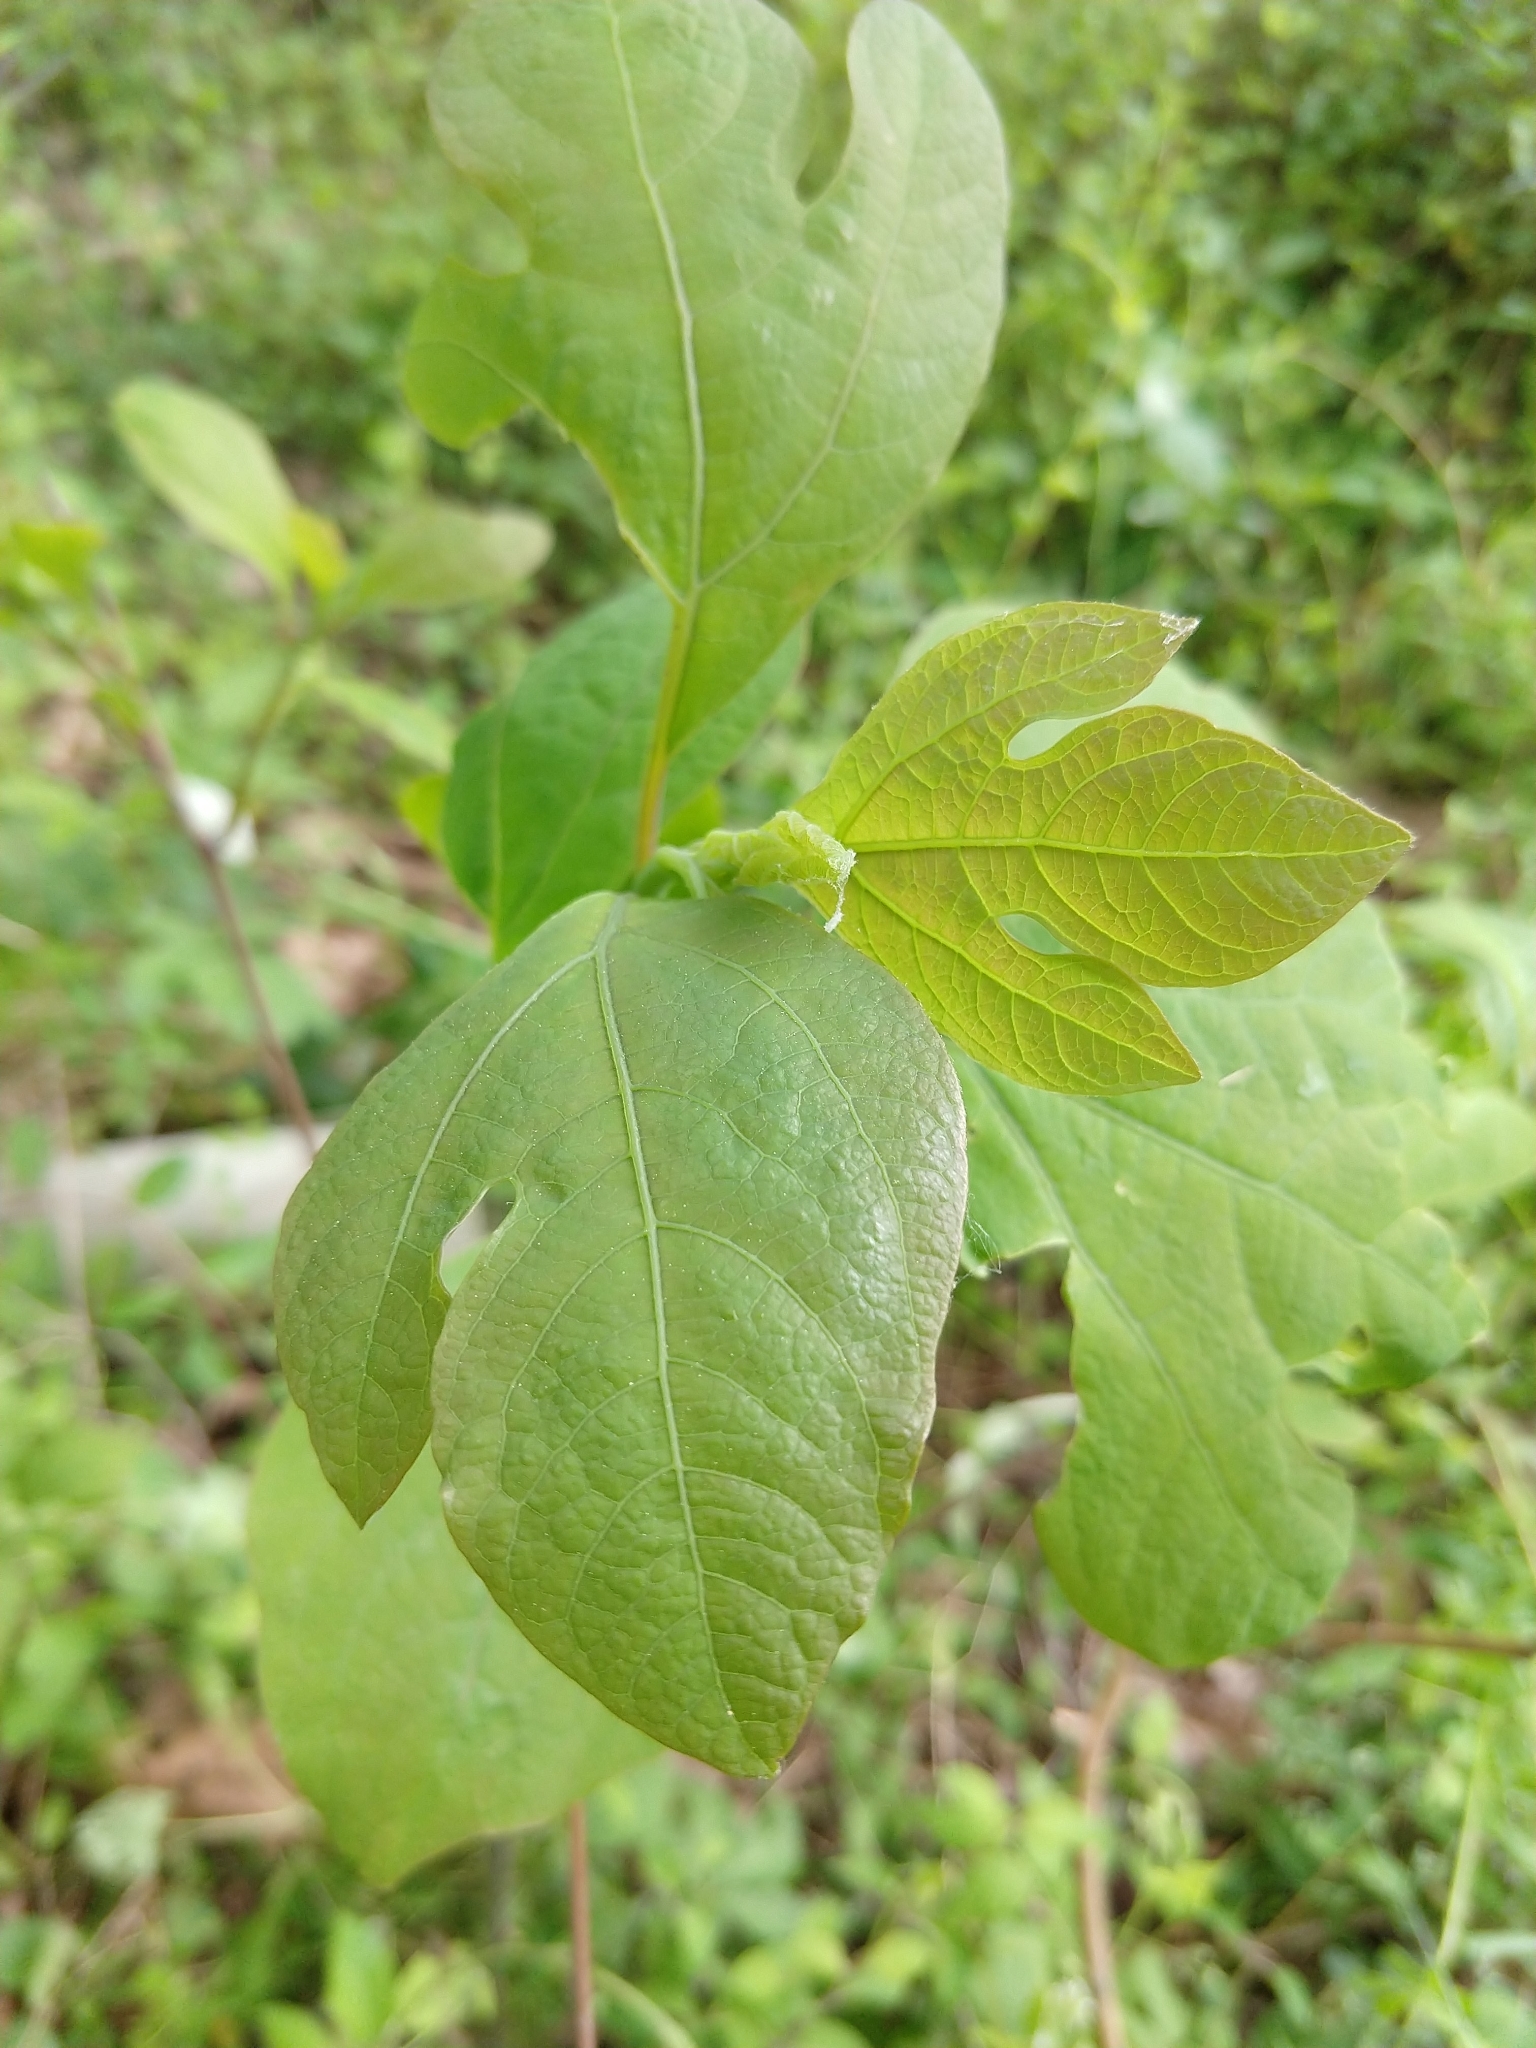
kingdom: Plantae
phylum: Tracheophyta
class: Magnoliopsida
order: Laurales
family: Lauraceae
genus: Sassafras
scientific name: Sassafras albidum
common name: Sassafras
